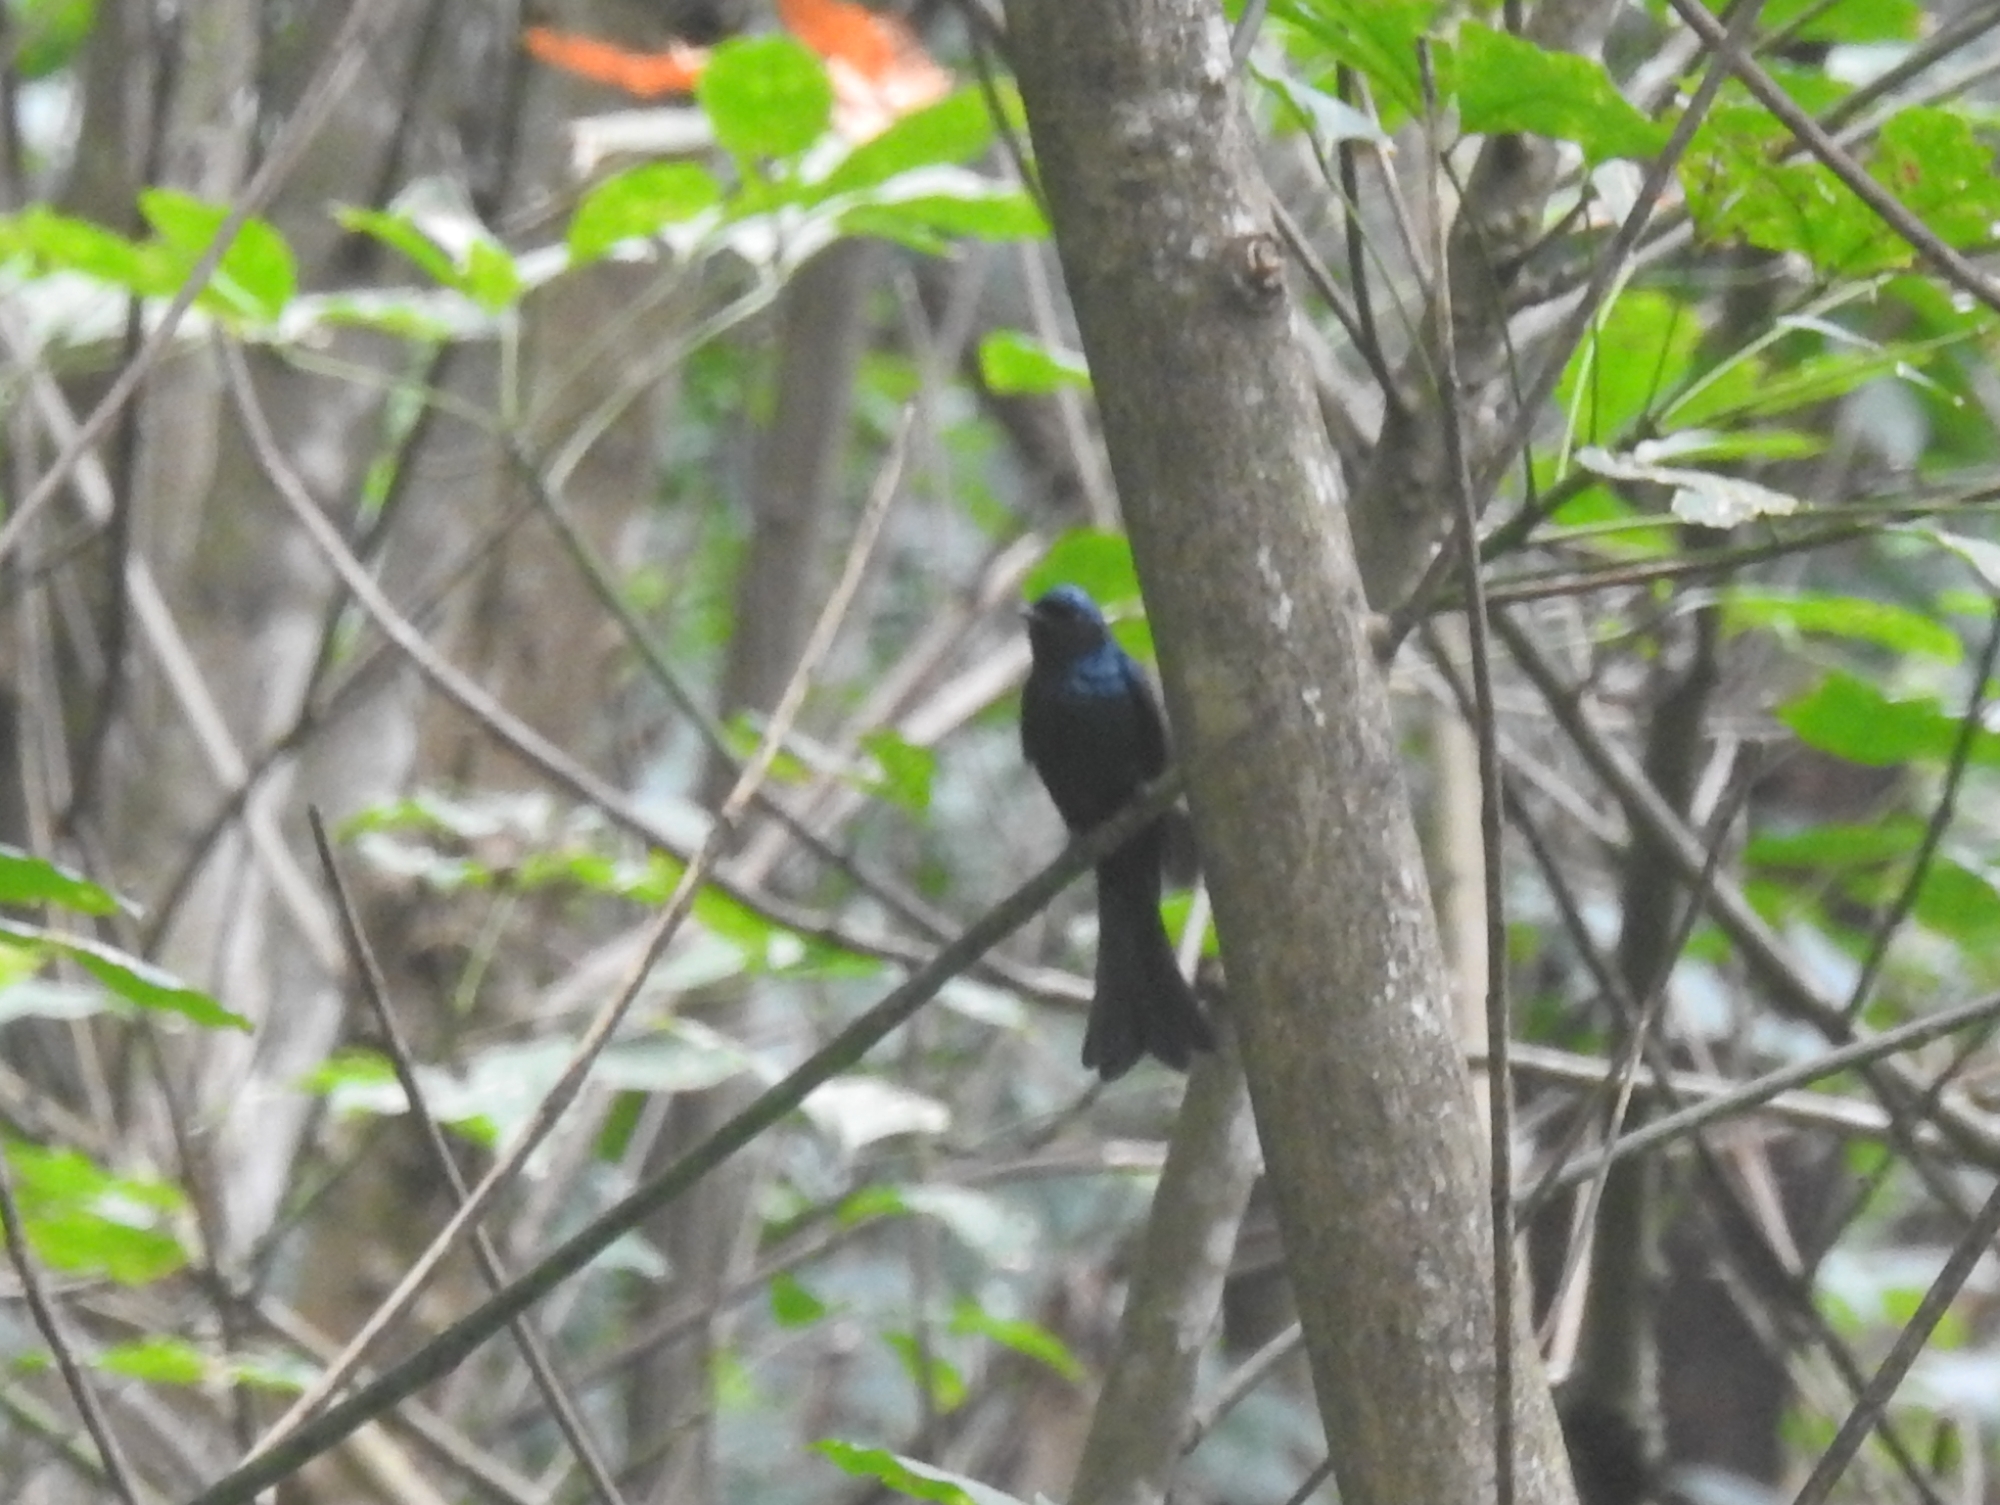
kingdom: Animalia
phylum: Chordata
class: Aves
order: Passeriformes
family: Dicruridae
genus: Dicrurus
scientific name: Dicrurus aeneus
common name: Bronzed drongo
